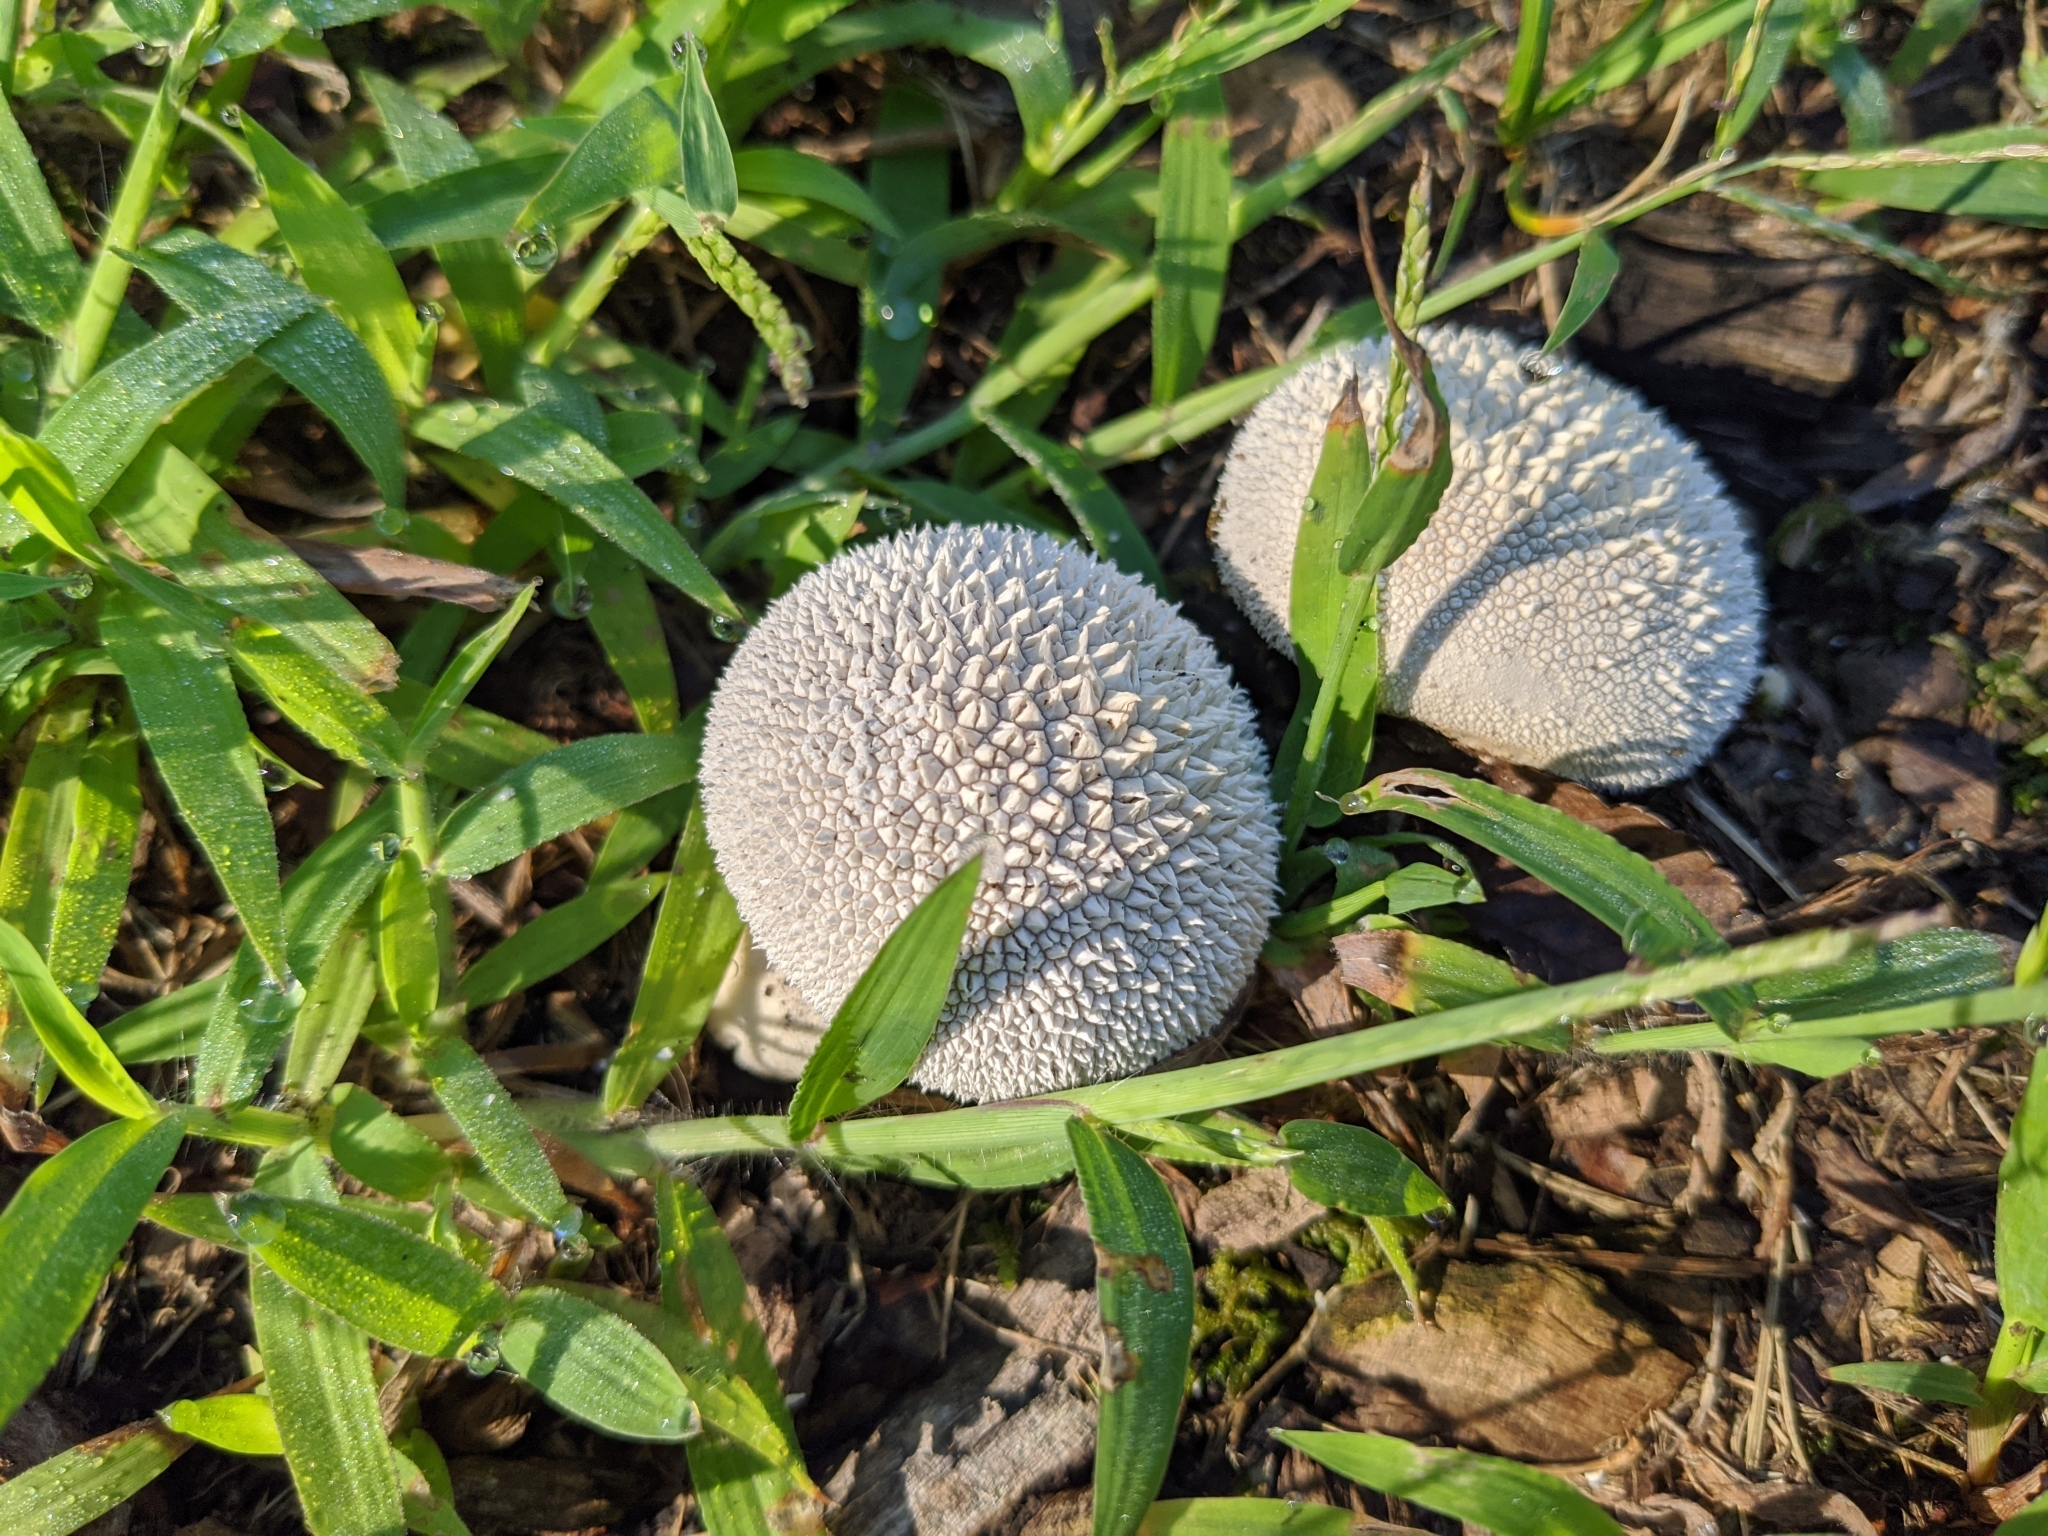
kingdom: Fungi
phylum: Basidiomycota
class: Agaricomycetes
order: Agaricales
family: Agaricaceae
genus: Lycoperdon
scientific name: Lycoperdon marginatum
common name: Peeling puffball
